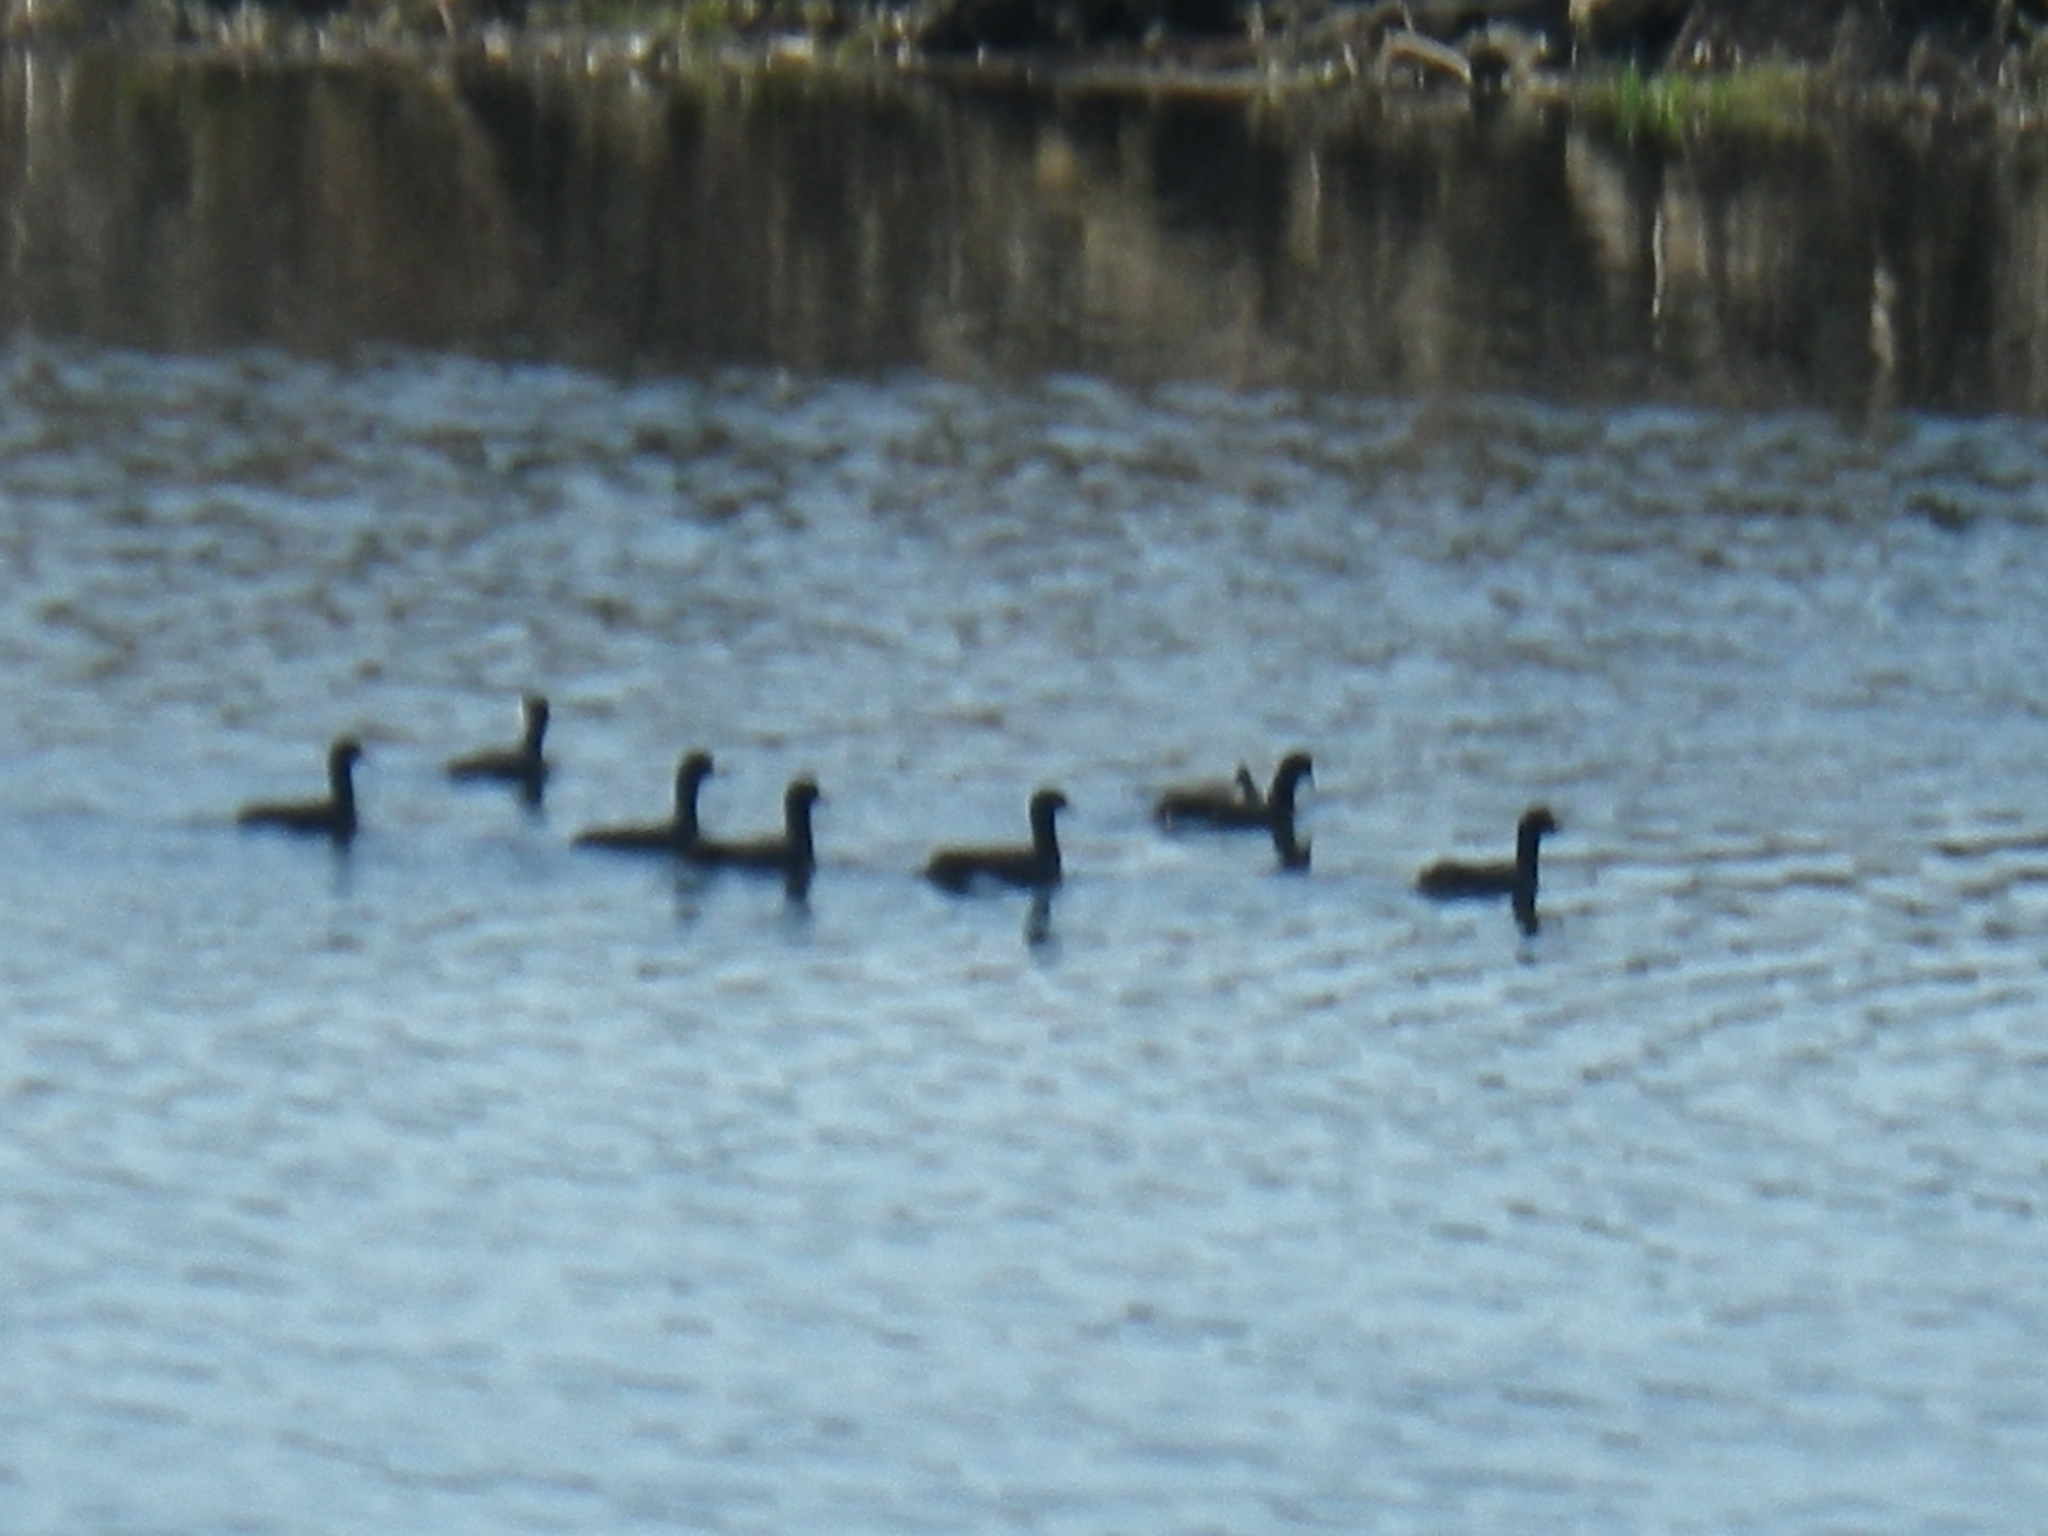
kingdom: Animalia
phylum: Chordata
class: Aves
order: Gruiformes
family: Rallidae
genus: Fulica
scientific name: Fulica americana
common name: American coot
